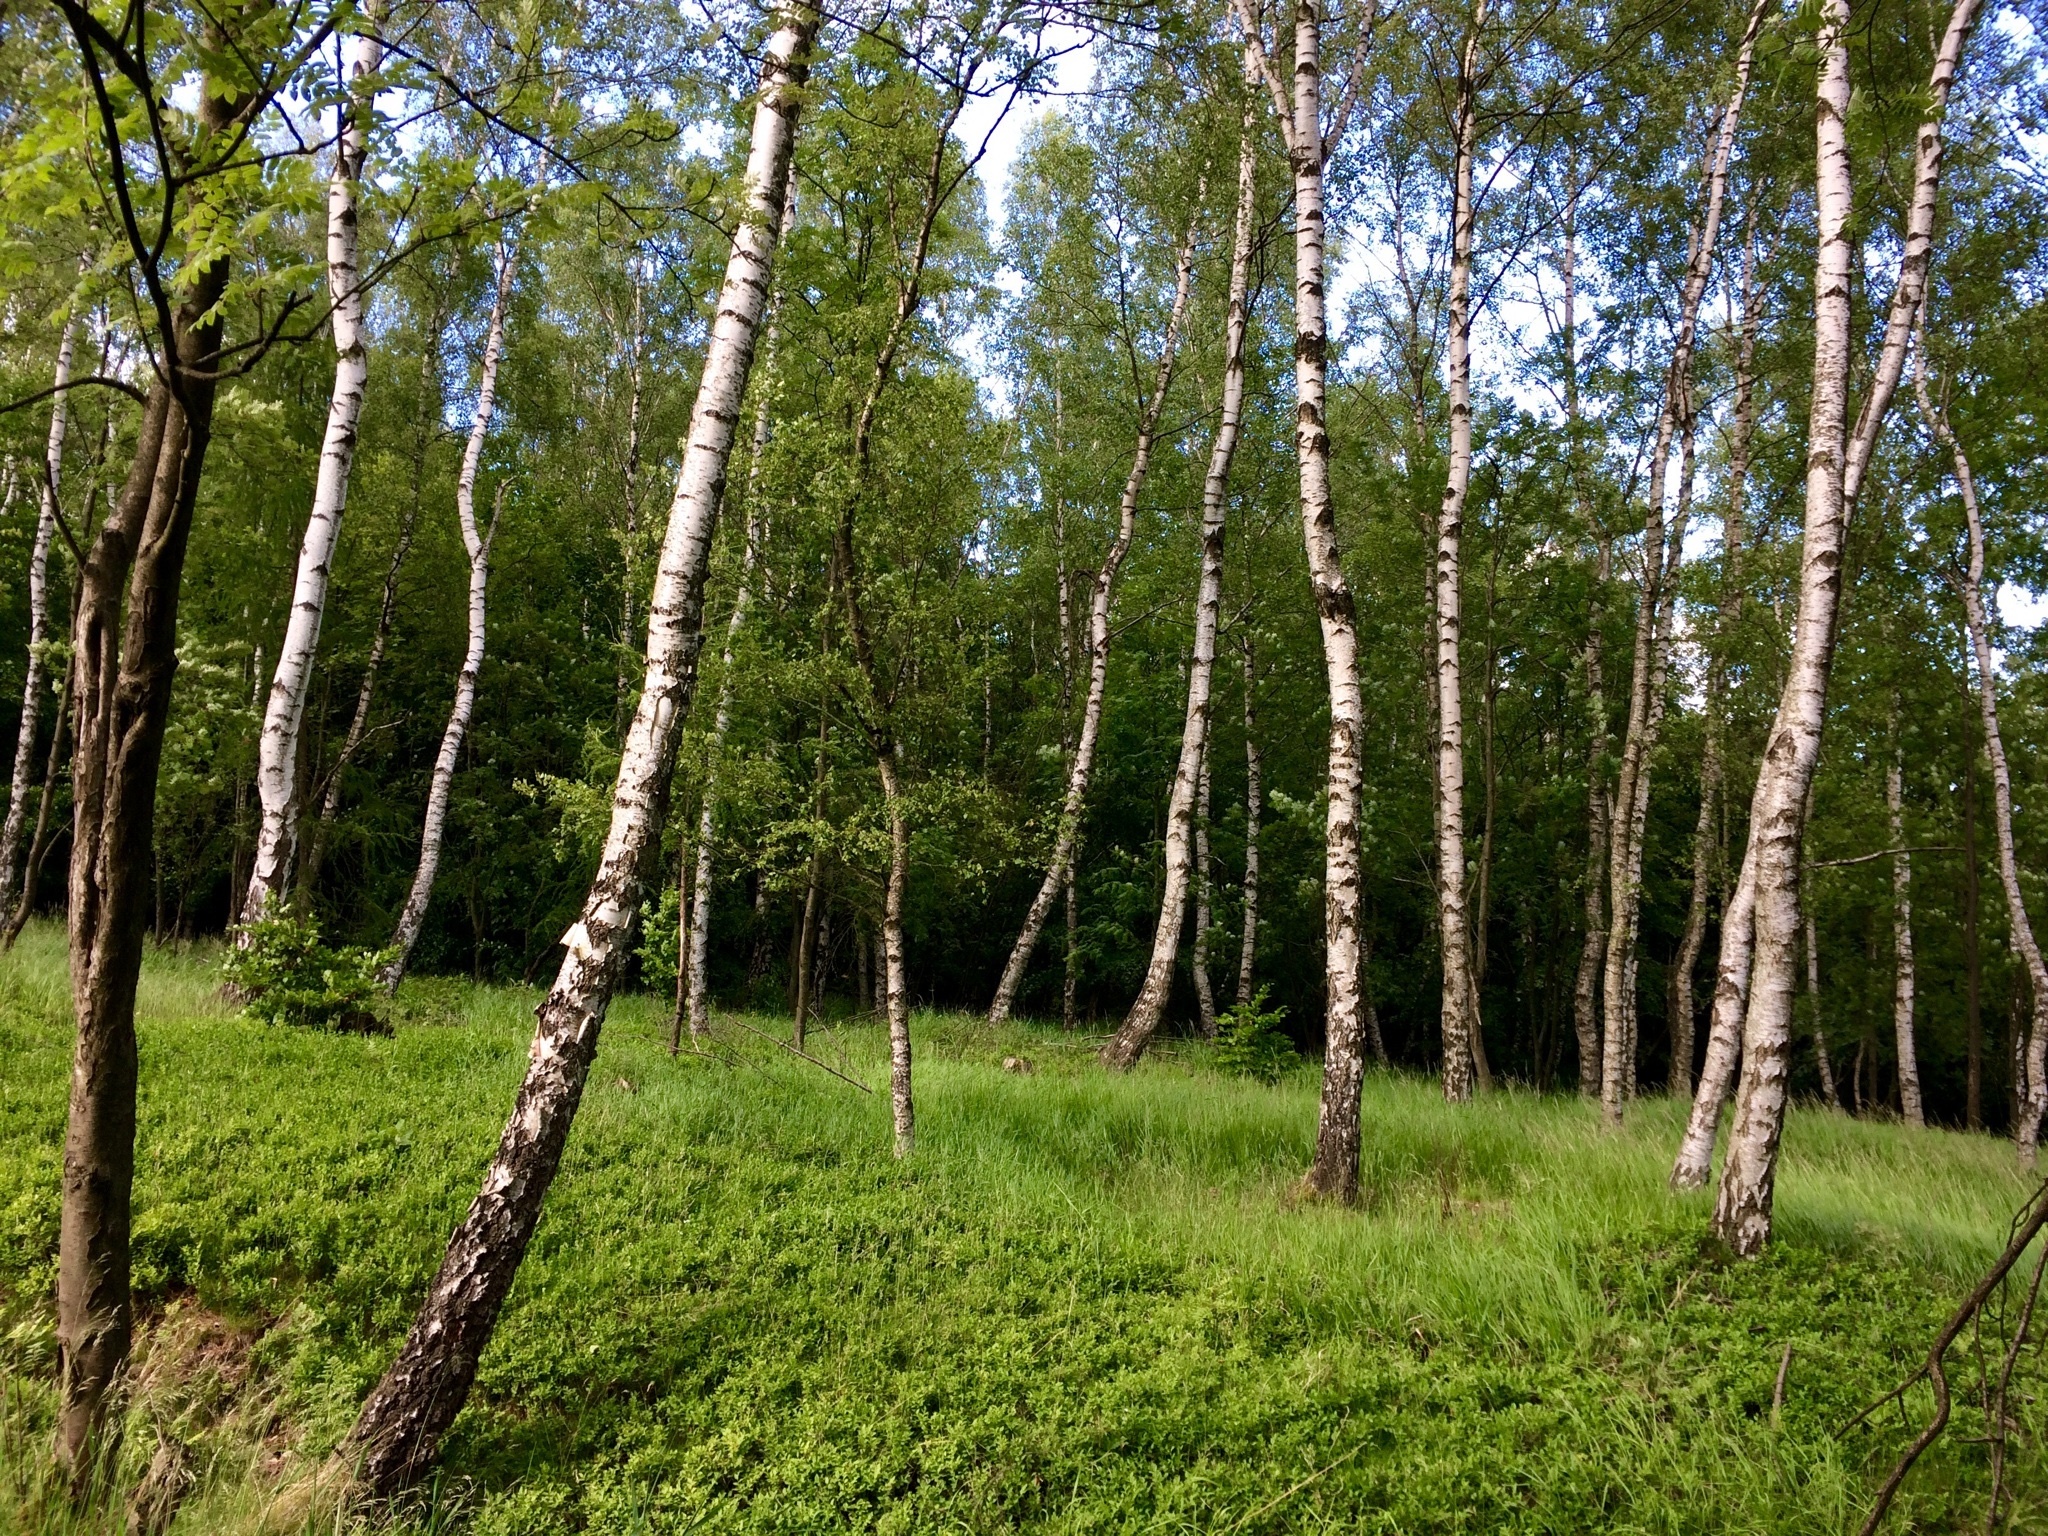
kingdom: Plantae
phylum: Tracheophyta
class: Magnoliopsida
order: Fagales
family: Betulaceae
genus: Betula
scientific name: Betula pendula
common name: Silver birch
